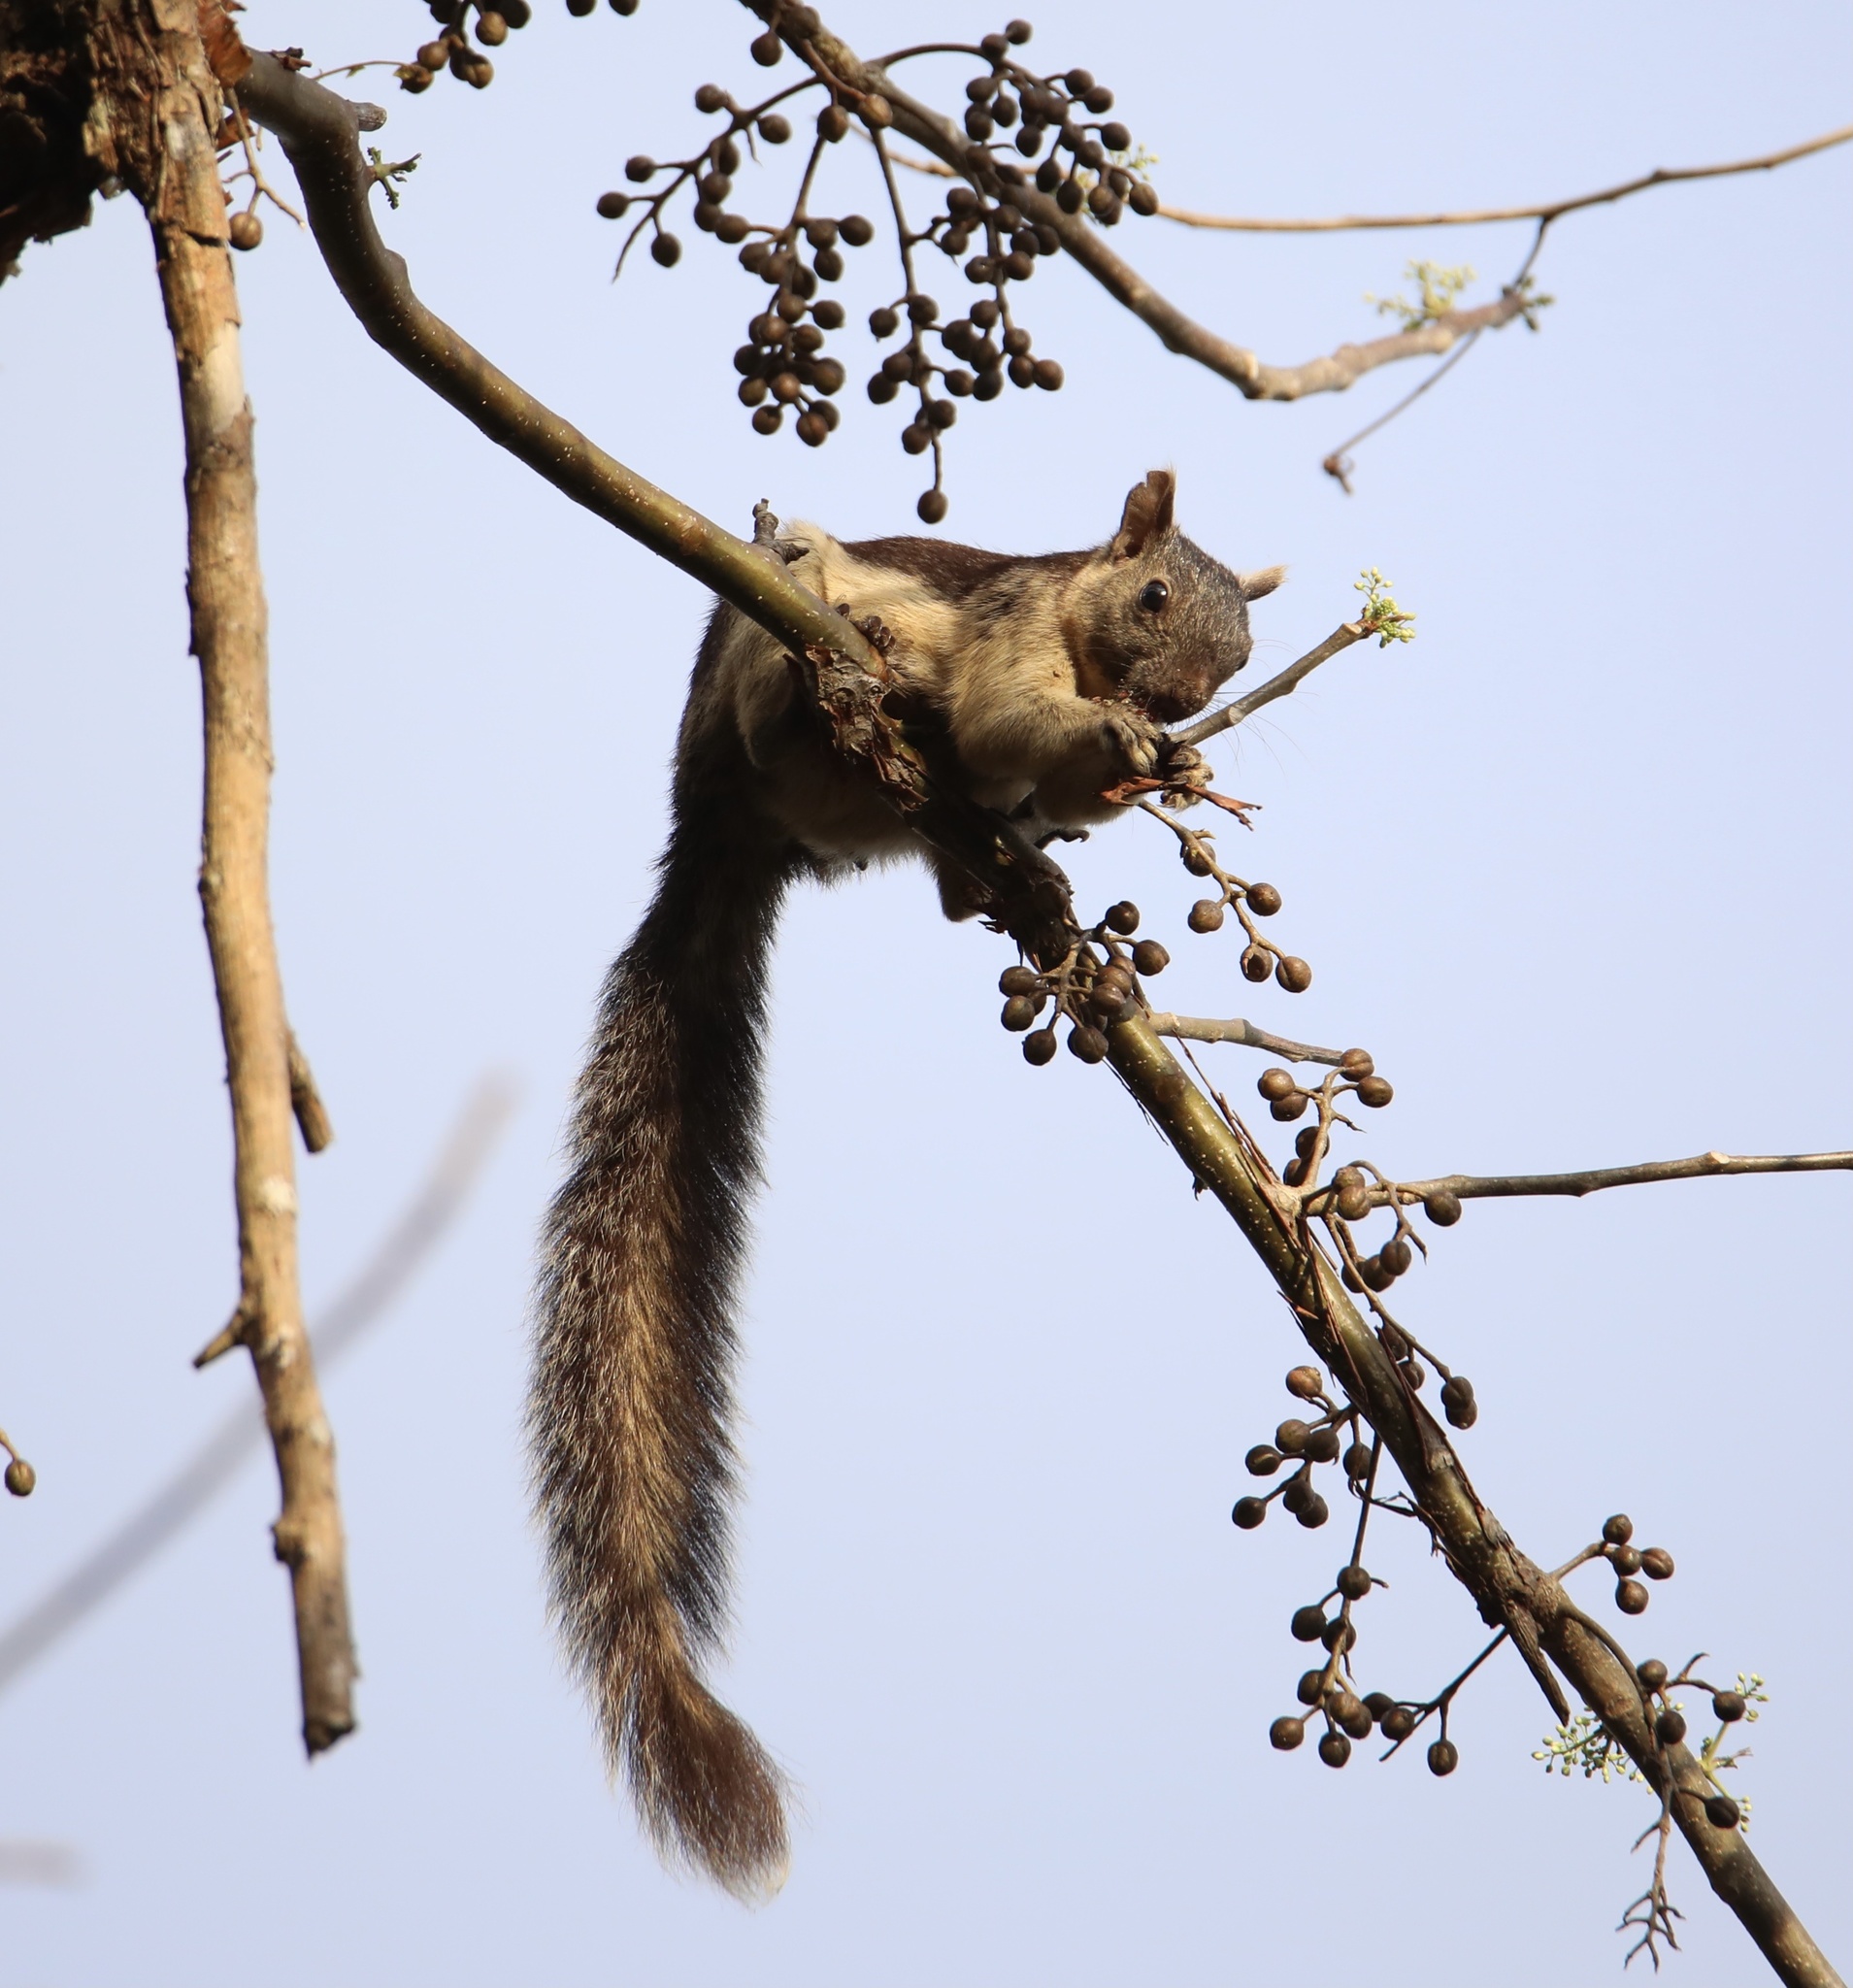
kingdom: Animalia
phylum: Chordata
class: Mammalia
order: Rodentia
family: Sciuridae
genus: Sciurus
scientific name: Sciurus variegatoides
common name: Variegated squirrel
